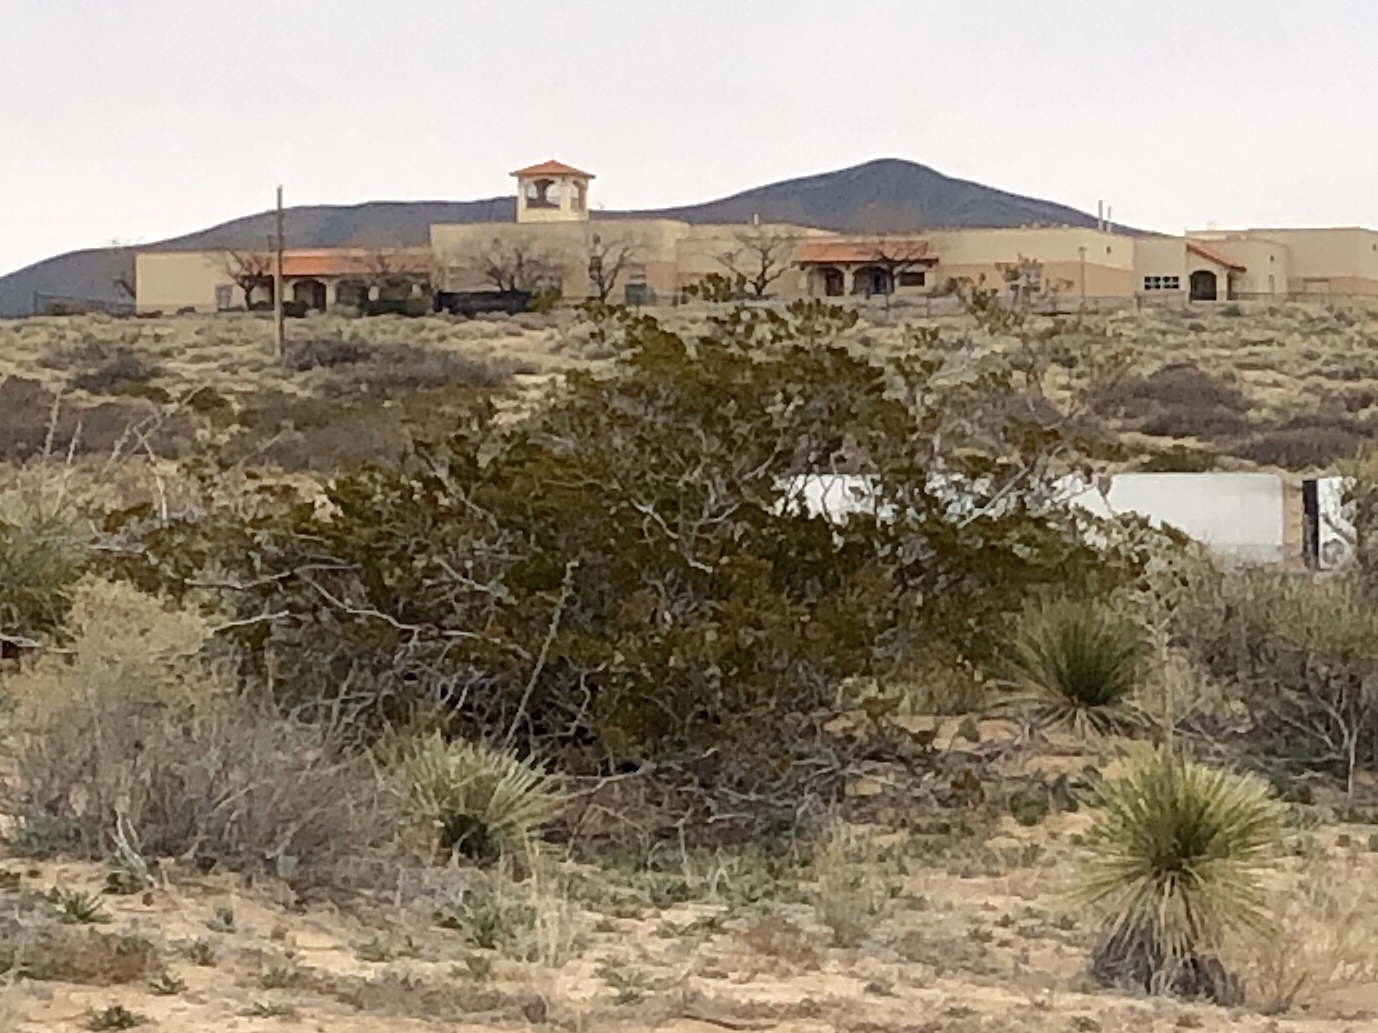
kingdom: Plantae
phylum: Tracheophyta
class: Magnoliopsida
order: Zygophyllales
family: Zygophyllaceae
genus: Larrea
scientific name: Larrea tridentata
